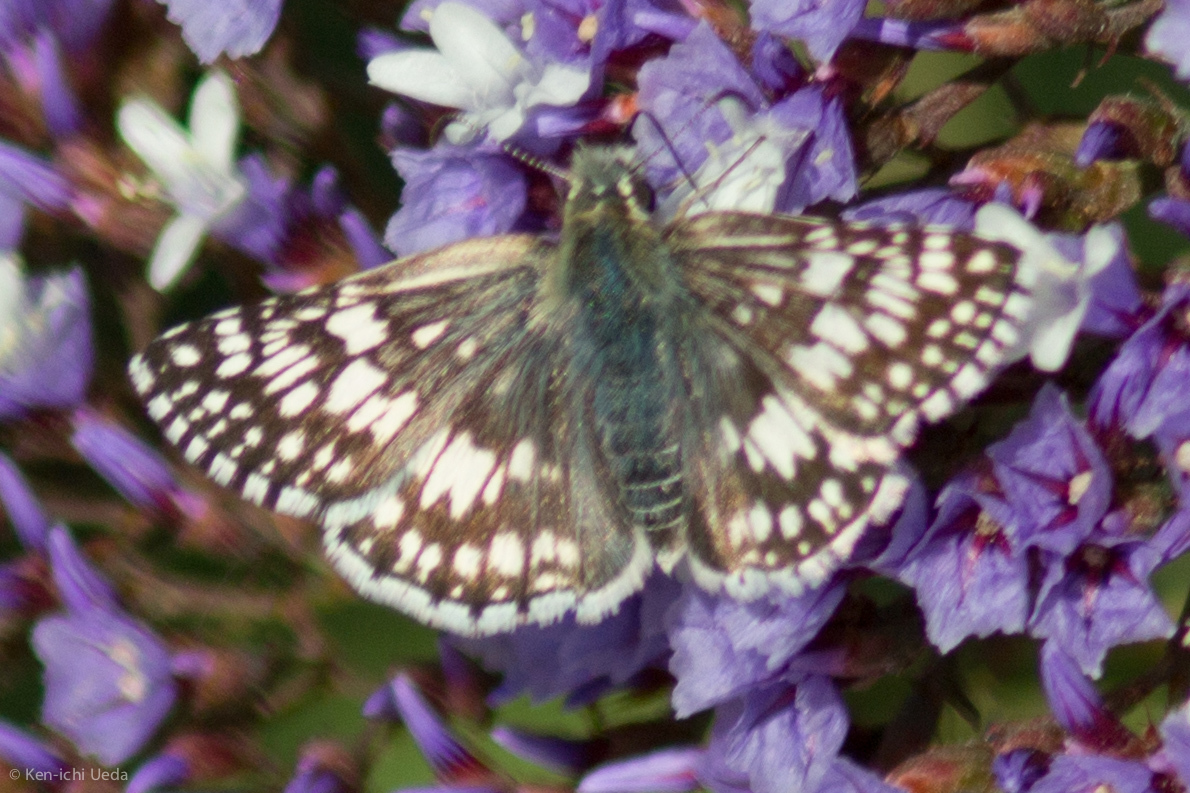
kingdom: Animalia
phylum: Arthropoda
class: Insecta
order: Lepidoptera
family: Hesperiidae
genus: Burnsius
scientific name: Burnsius communis
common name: Common checkered-skipper
